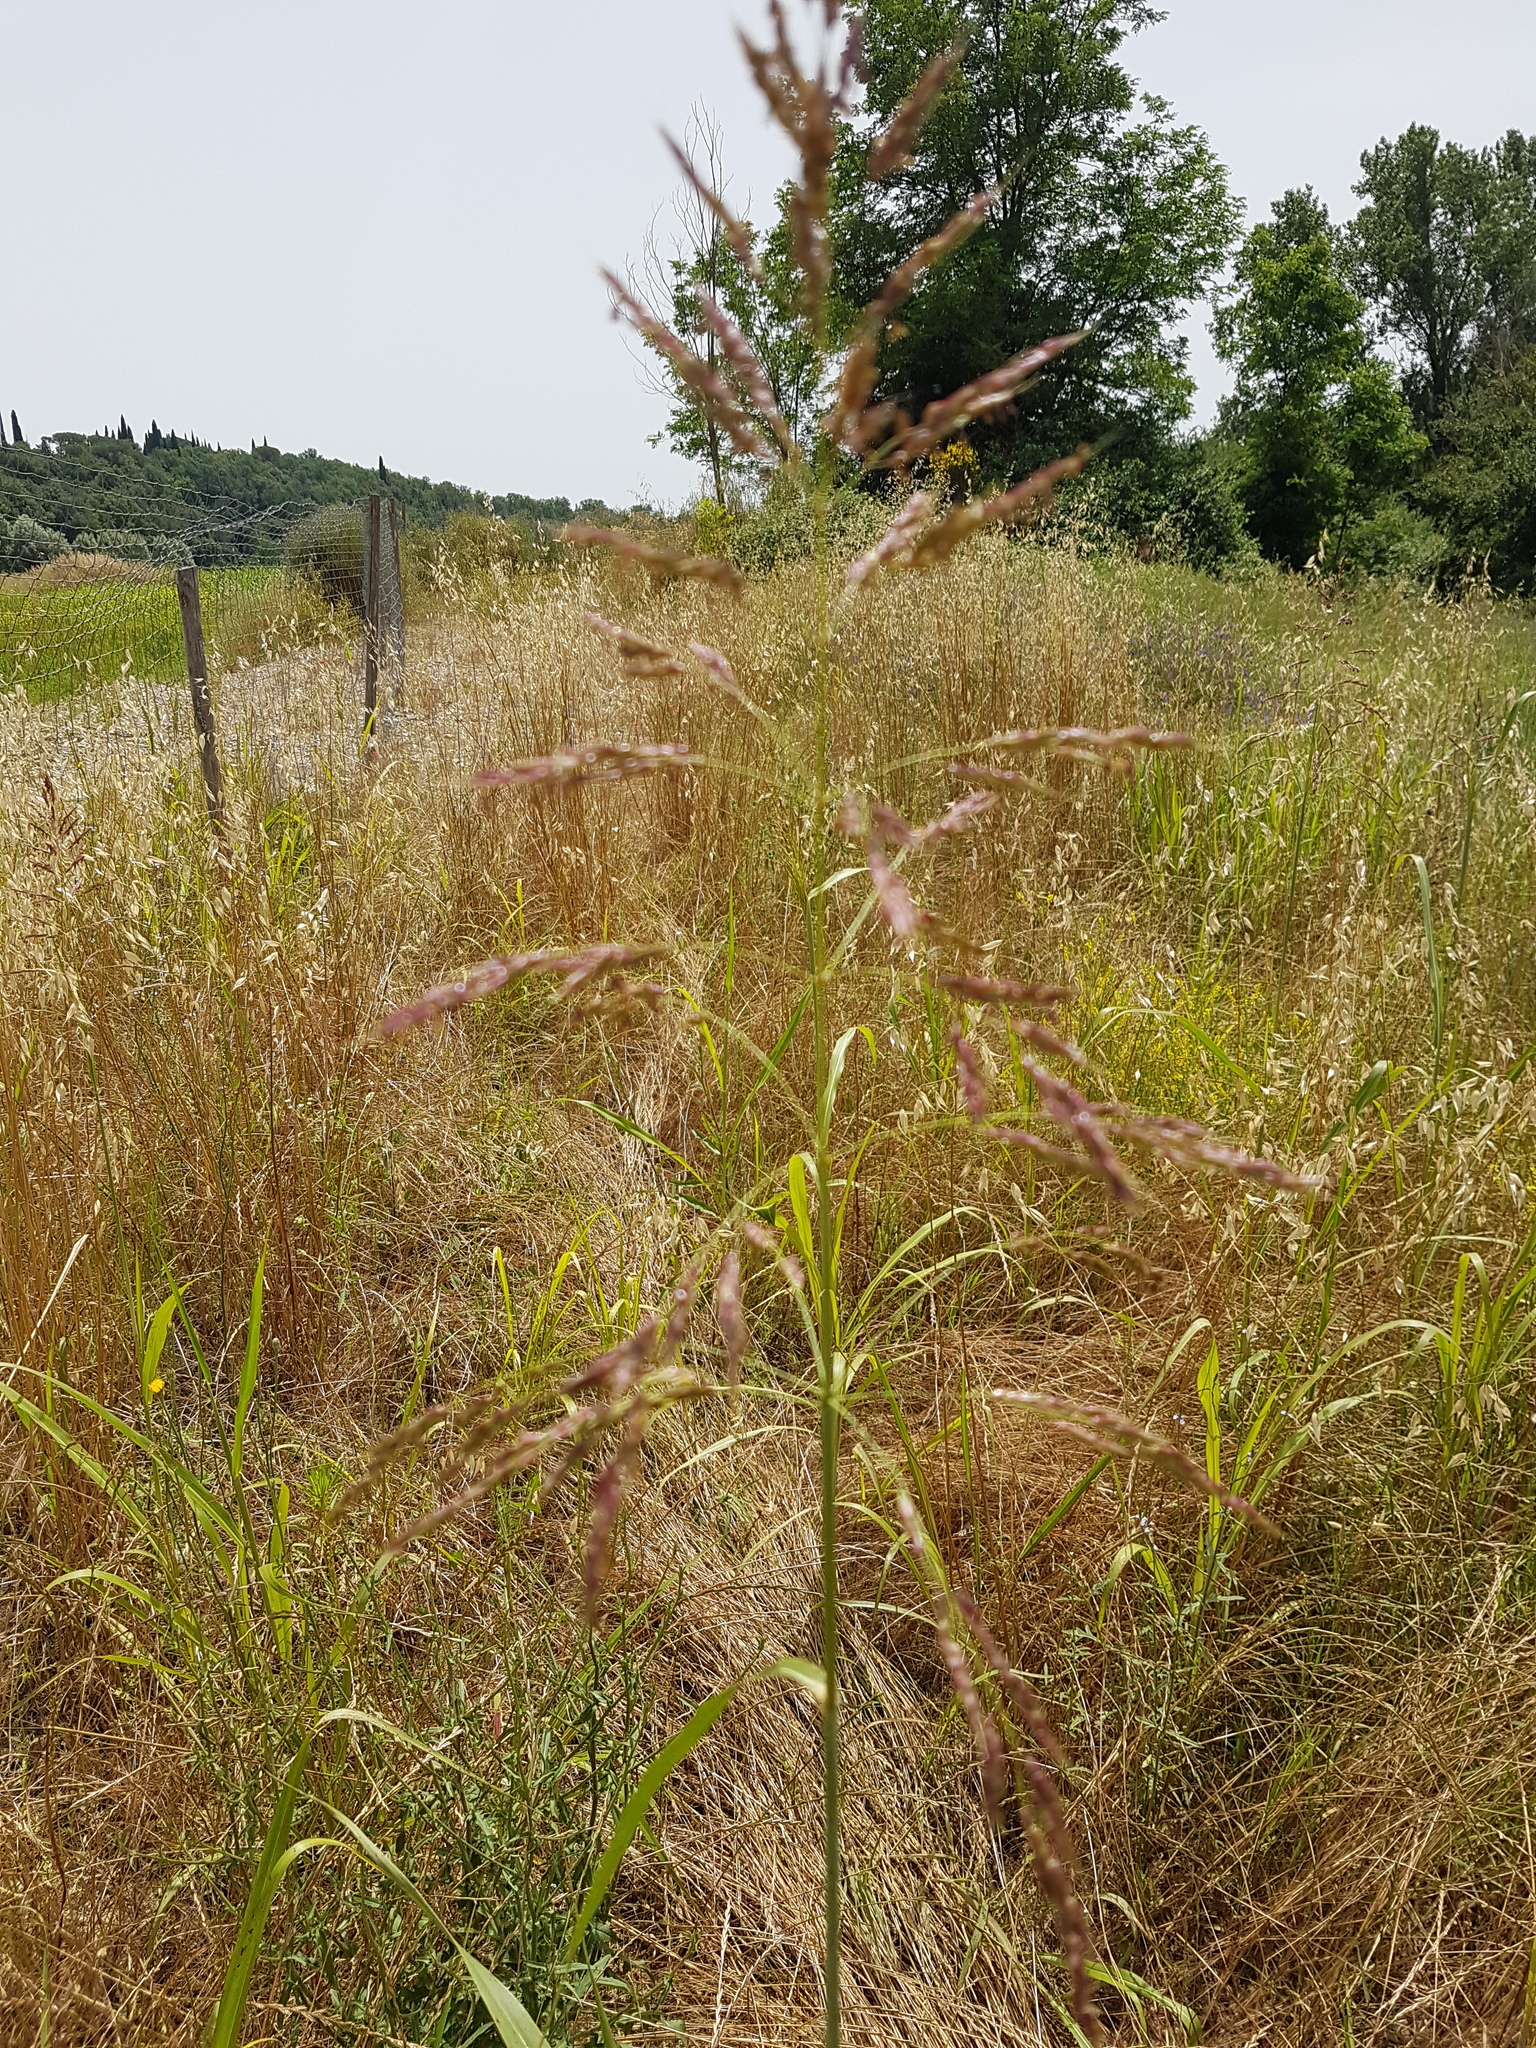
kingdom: Plantae
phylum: Tracheophyta
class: Liliopsida
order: Poales
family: Poaceae
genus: Sorghum
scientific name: Sorghum halepense
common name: Johnson-grass
